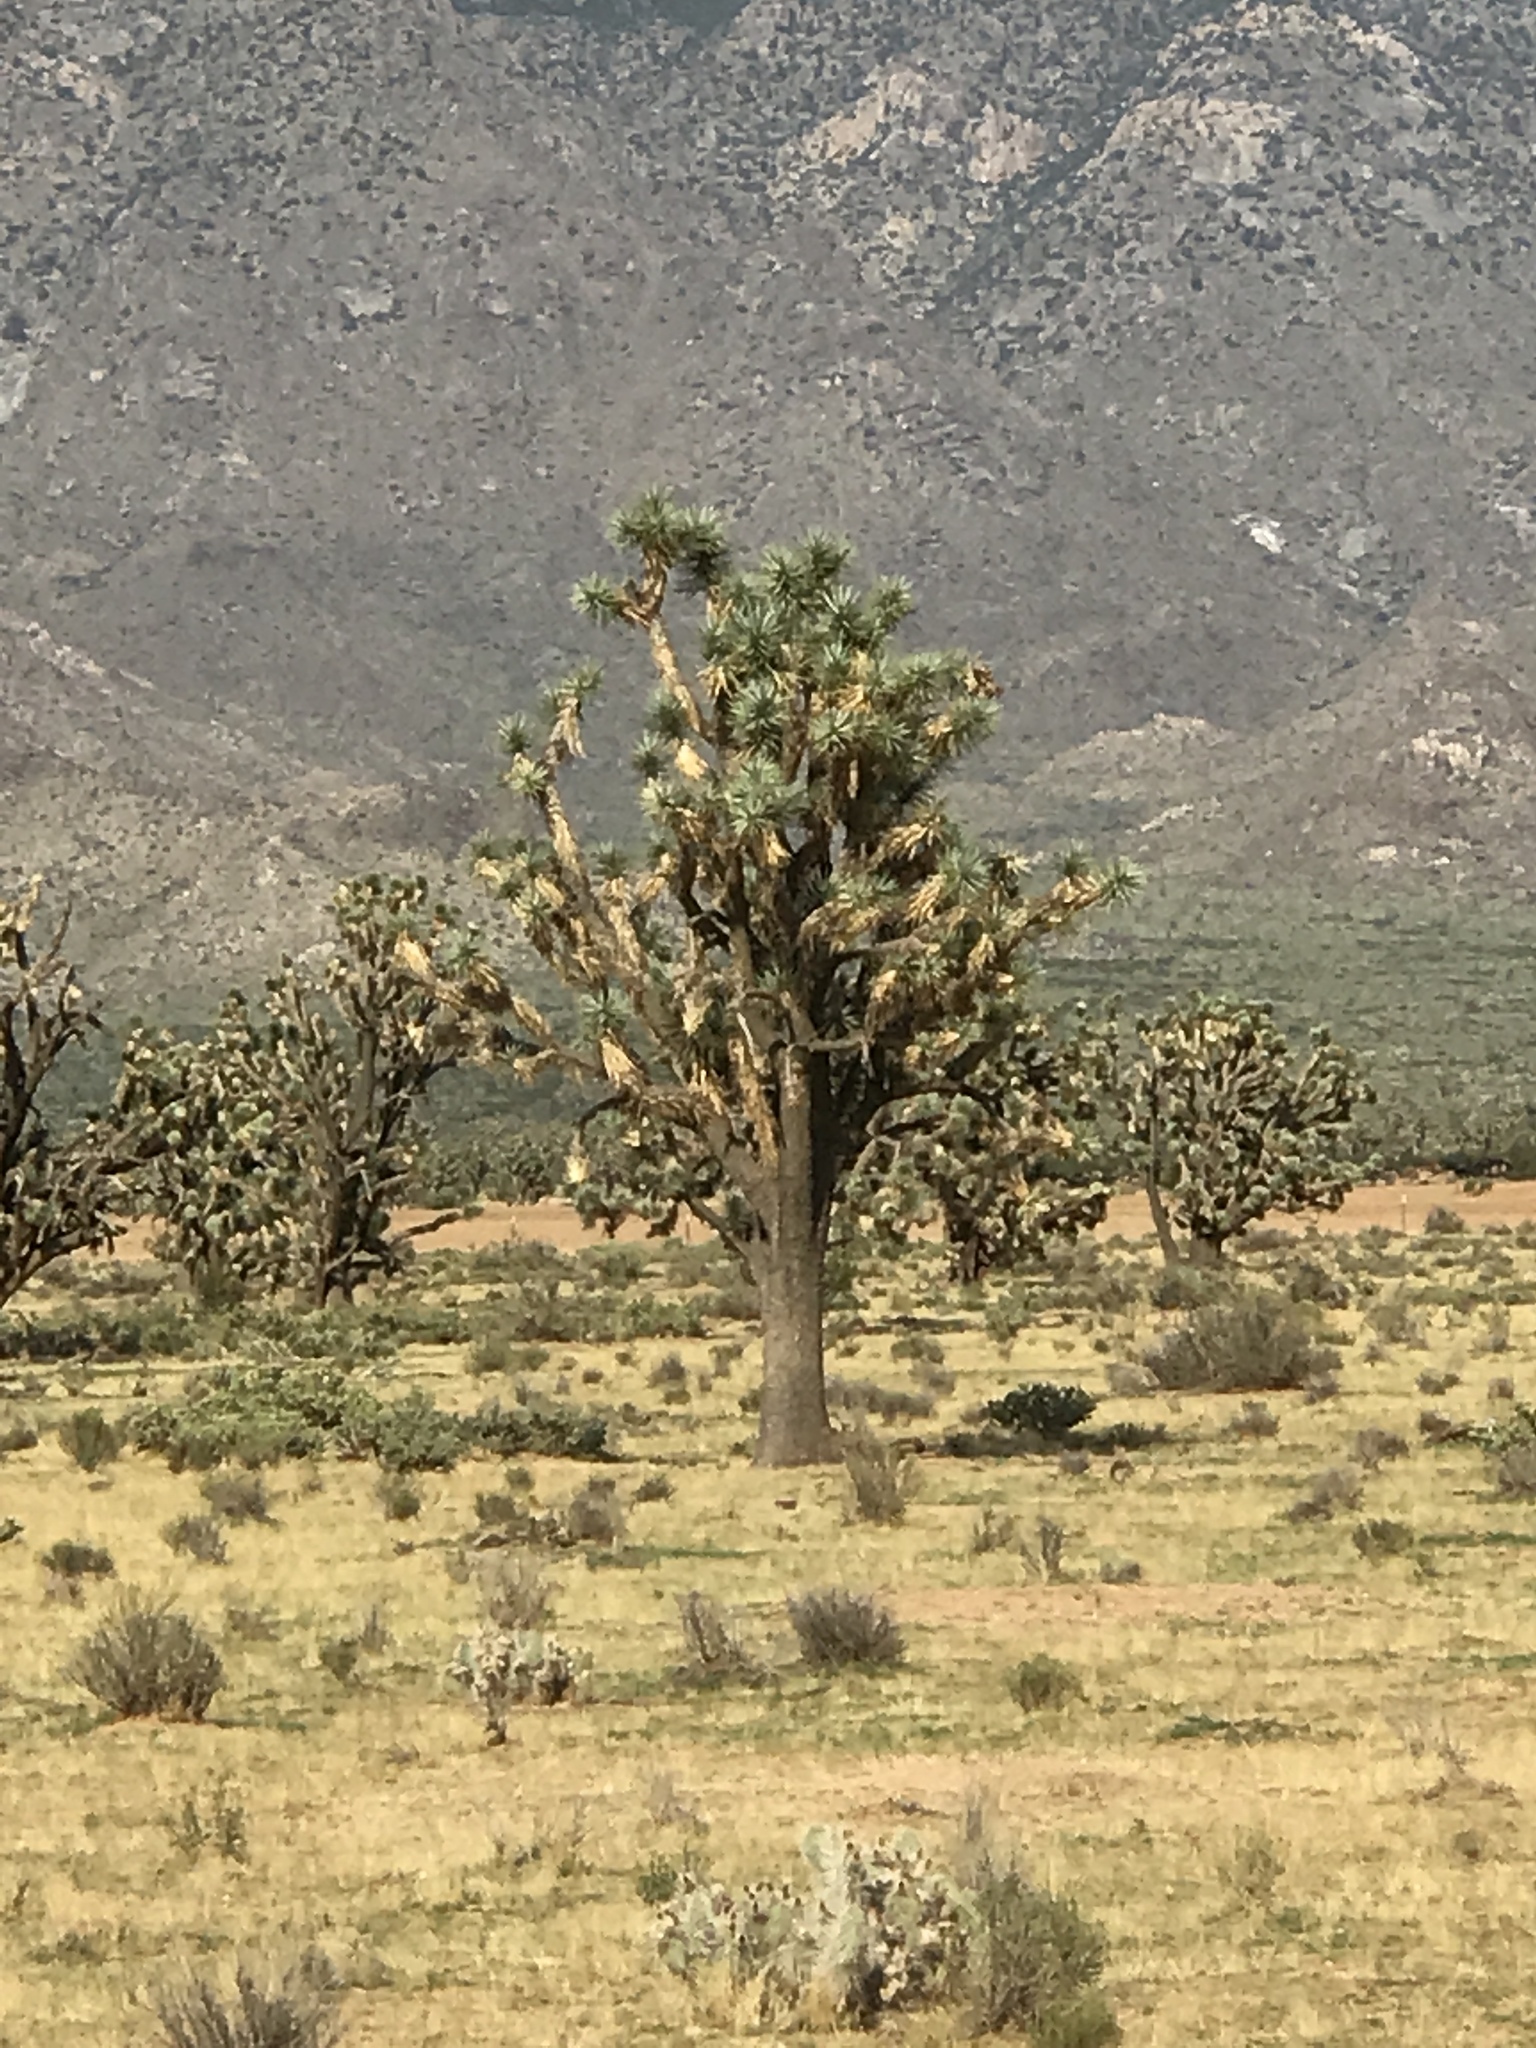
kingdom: Plantae
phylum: Tracheophyta
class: Liliopsida
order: Asparagales
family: Asparagaceae
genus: Yucca
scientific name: Yucca brevifolia
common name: Joshua tree
